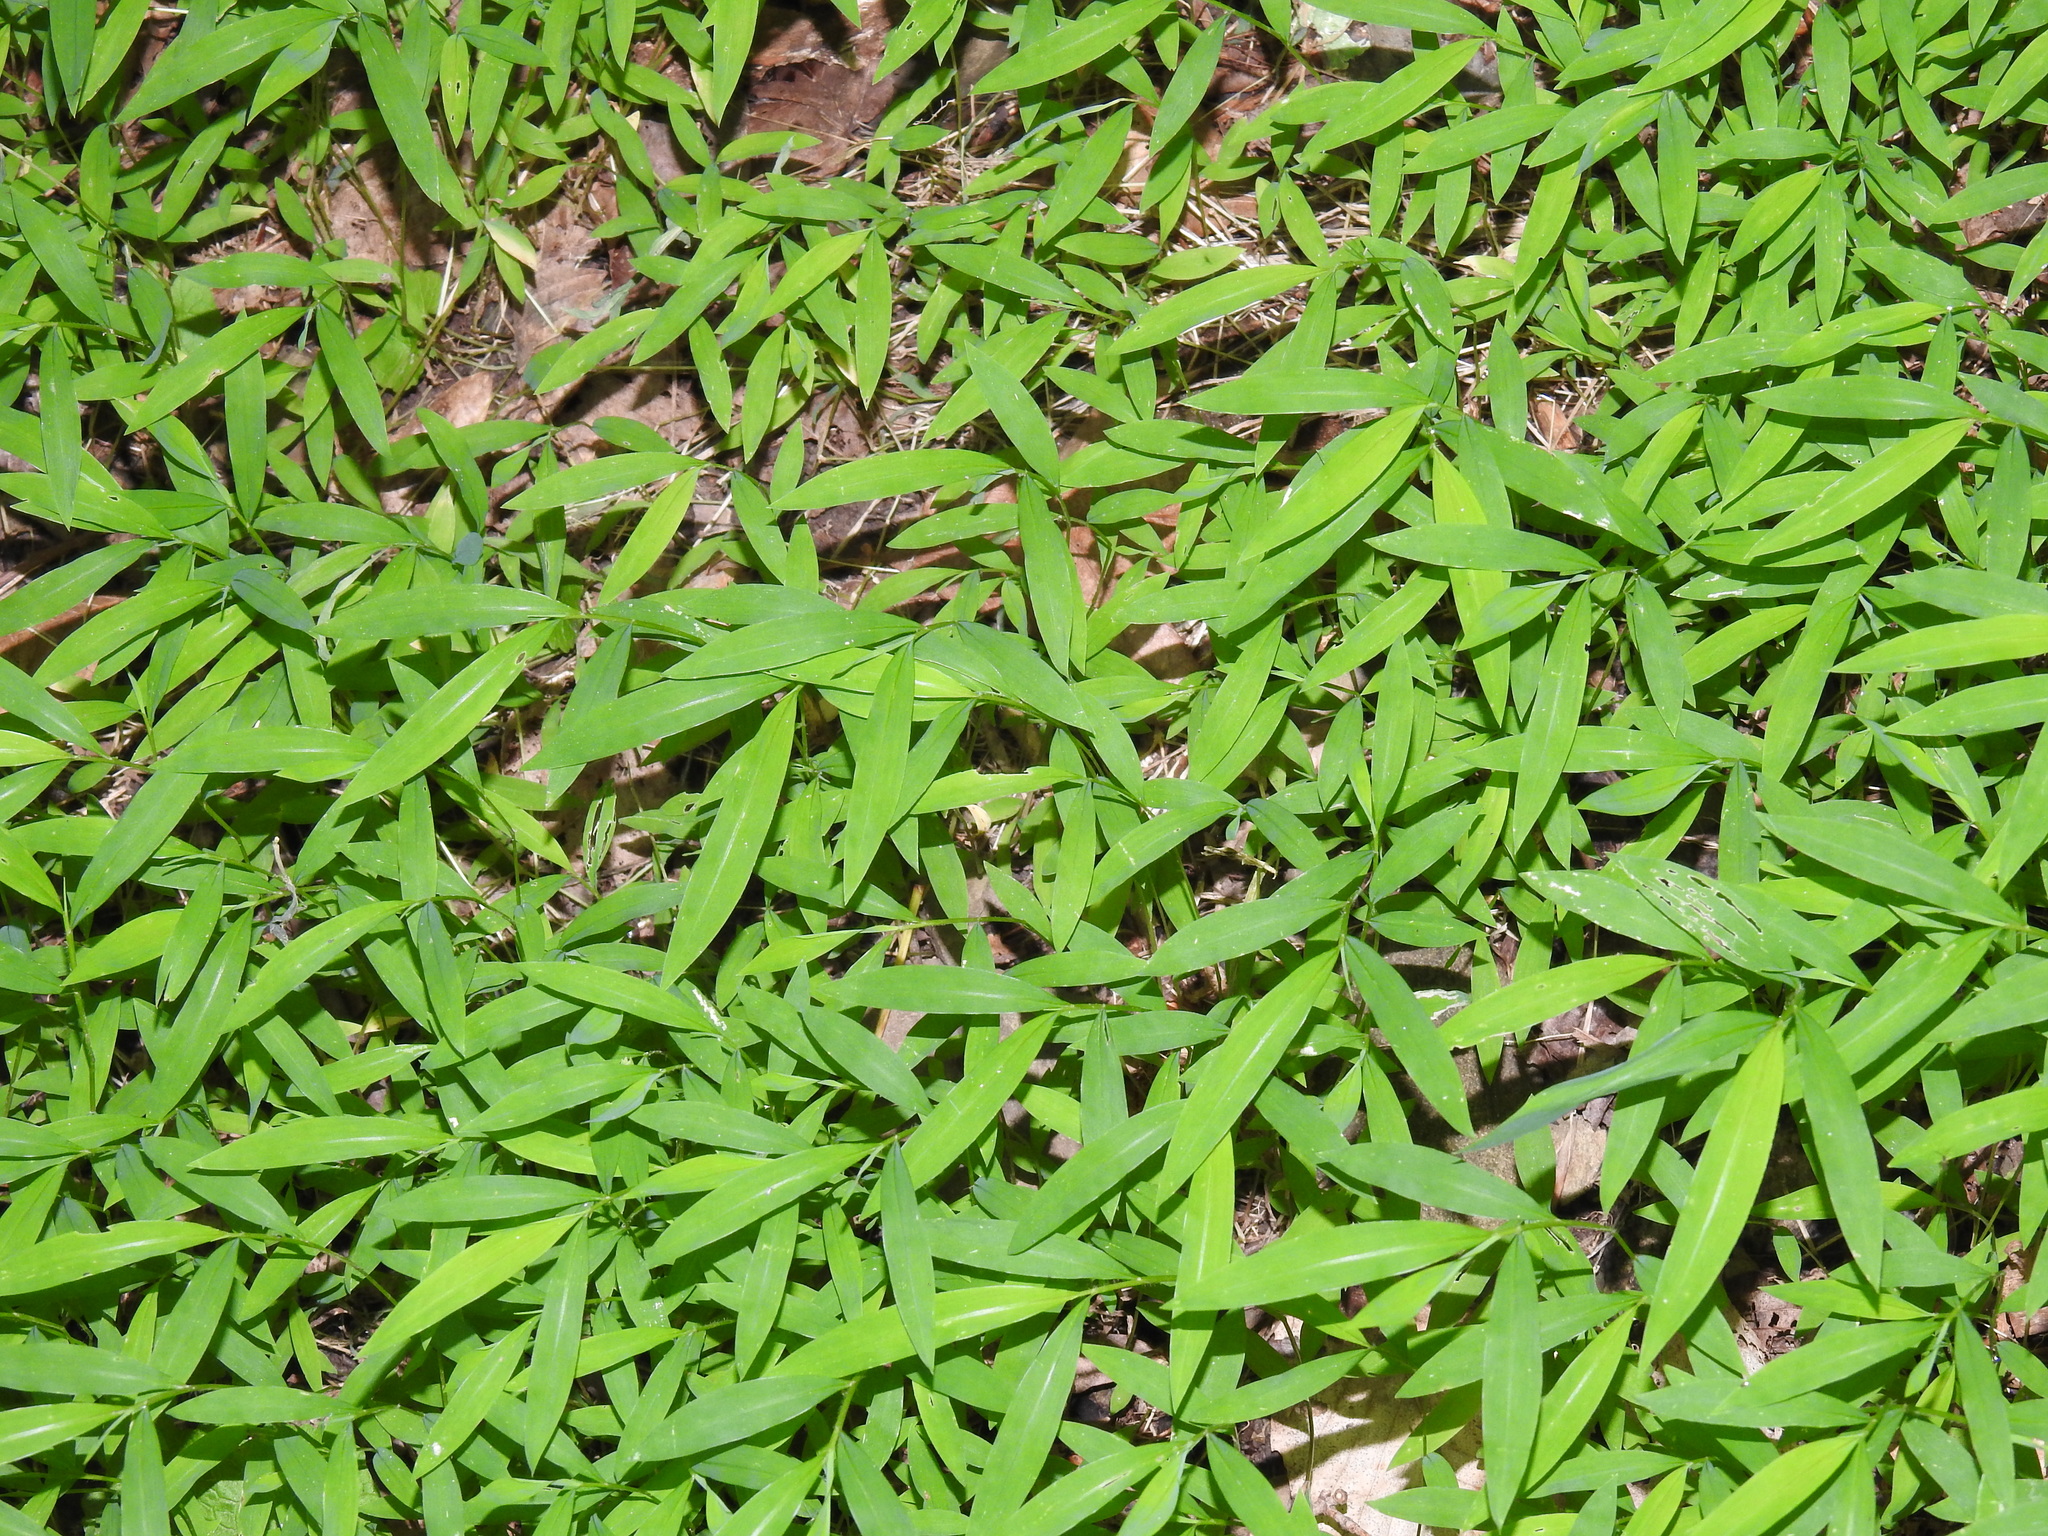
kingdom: Plantae
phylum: Tracheophyta
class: Liliopsida
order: Poales
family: Poaceae
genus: Microstegium
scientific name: Microstegium vimineum
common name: Japanese stiltgrass
